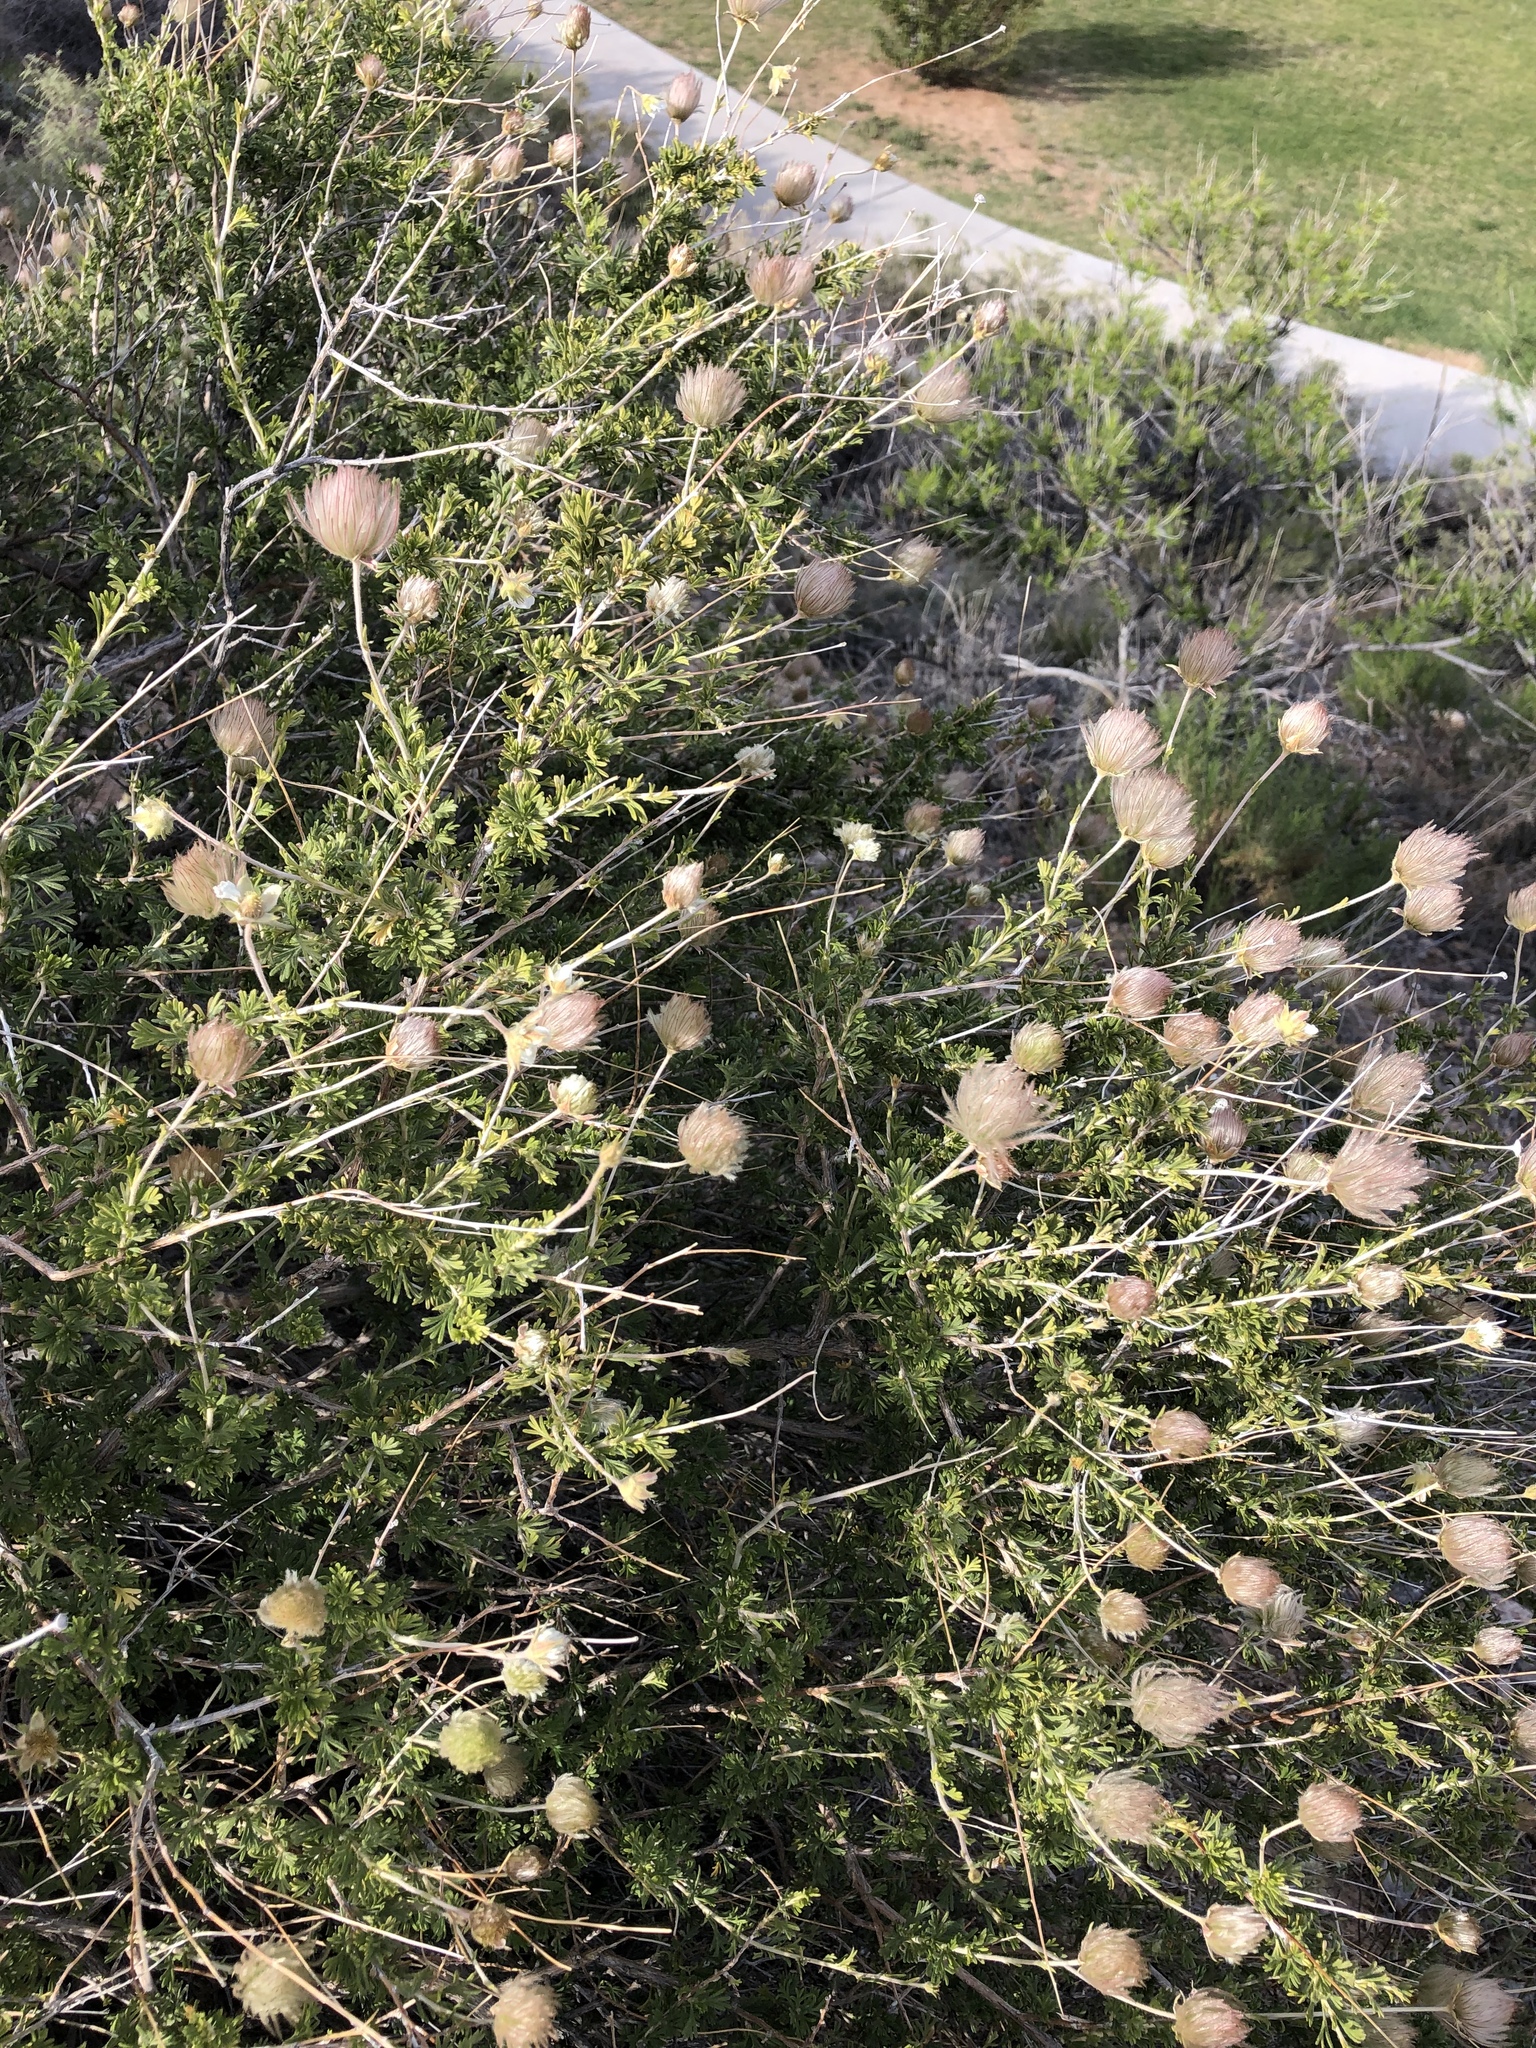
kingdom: Plantae
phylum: Tracheophyta
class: Magnoliopsida
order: Rosales
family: Rosaceae
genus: Fallugia
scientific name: Fallugia paradoxa
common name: Apache-plume
